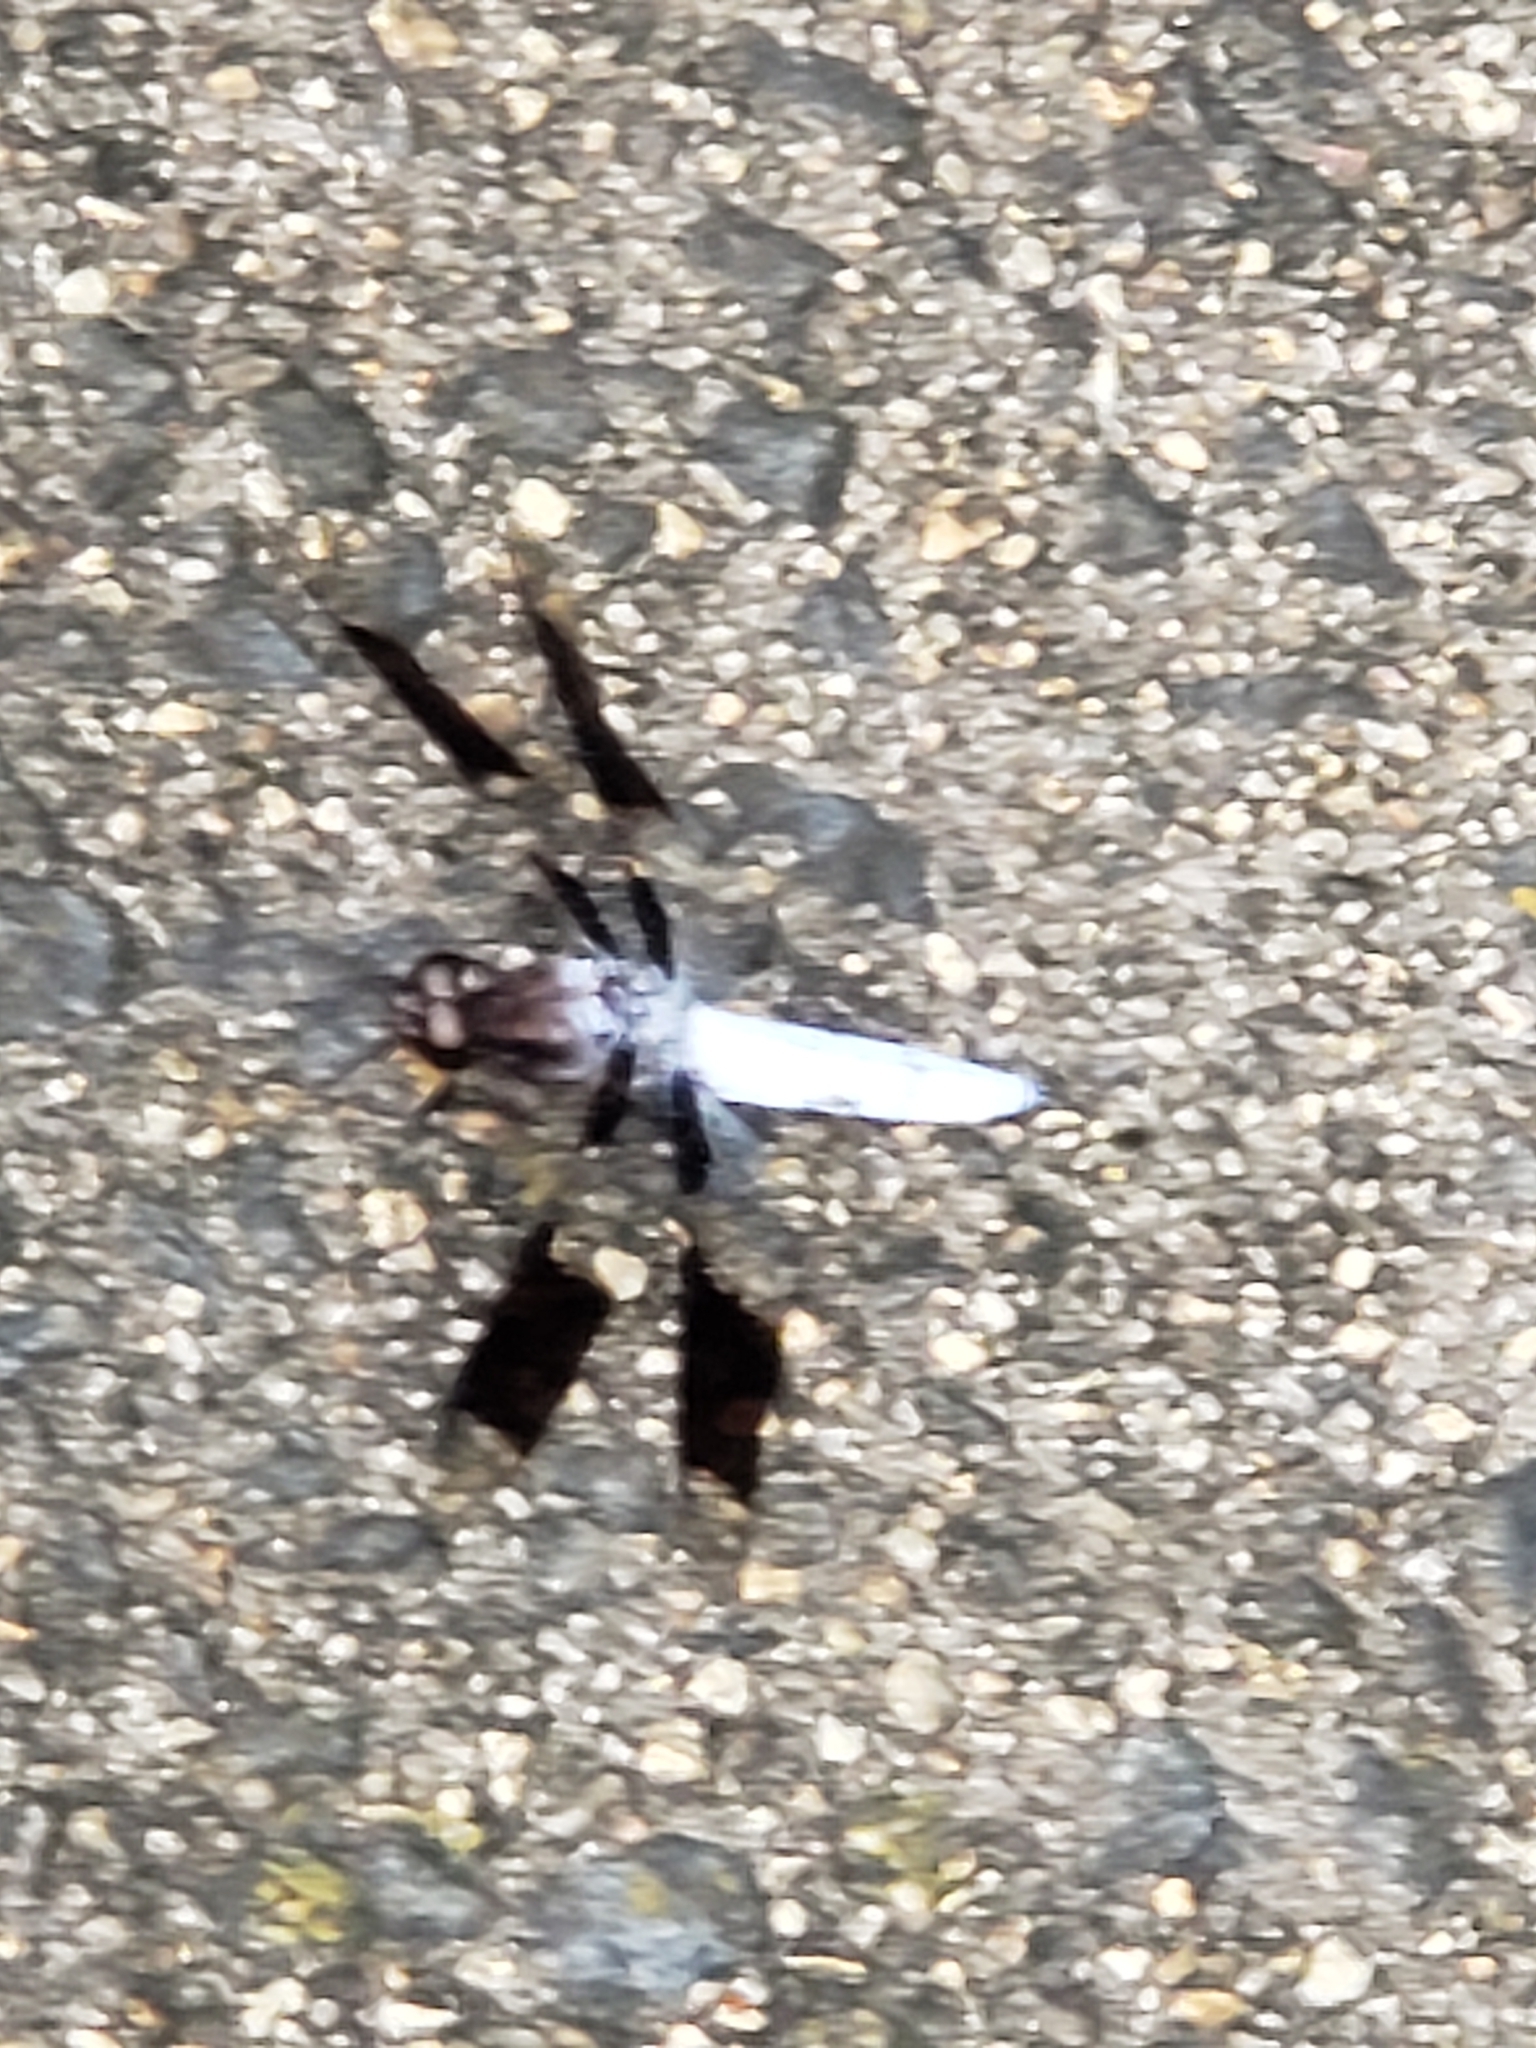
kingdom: Animalia
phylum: Arthropoda
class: Insecta
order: Odonata
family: Libellulidae
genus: Plathemis
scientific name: Plathemis lydia
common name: Common whitetail
